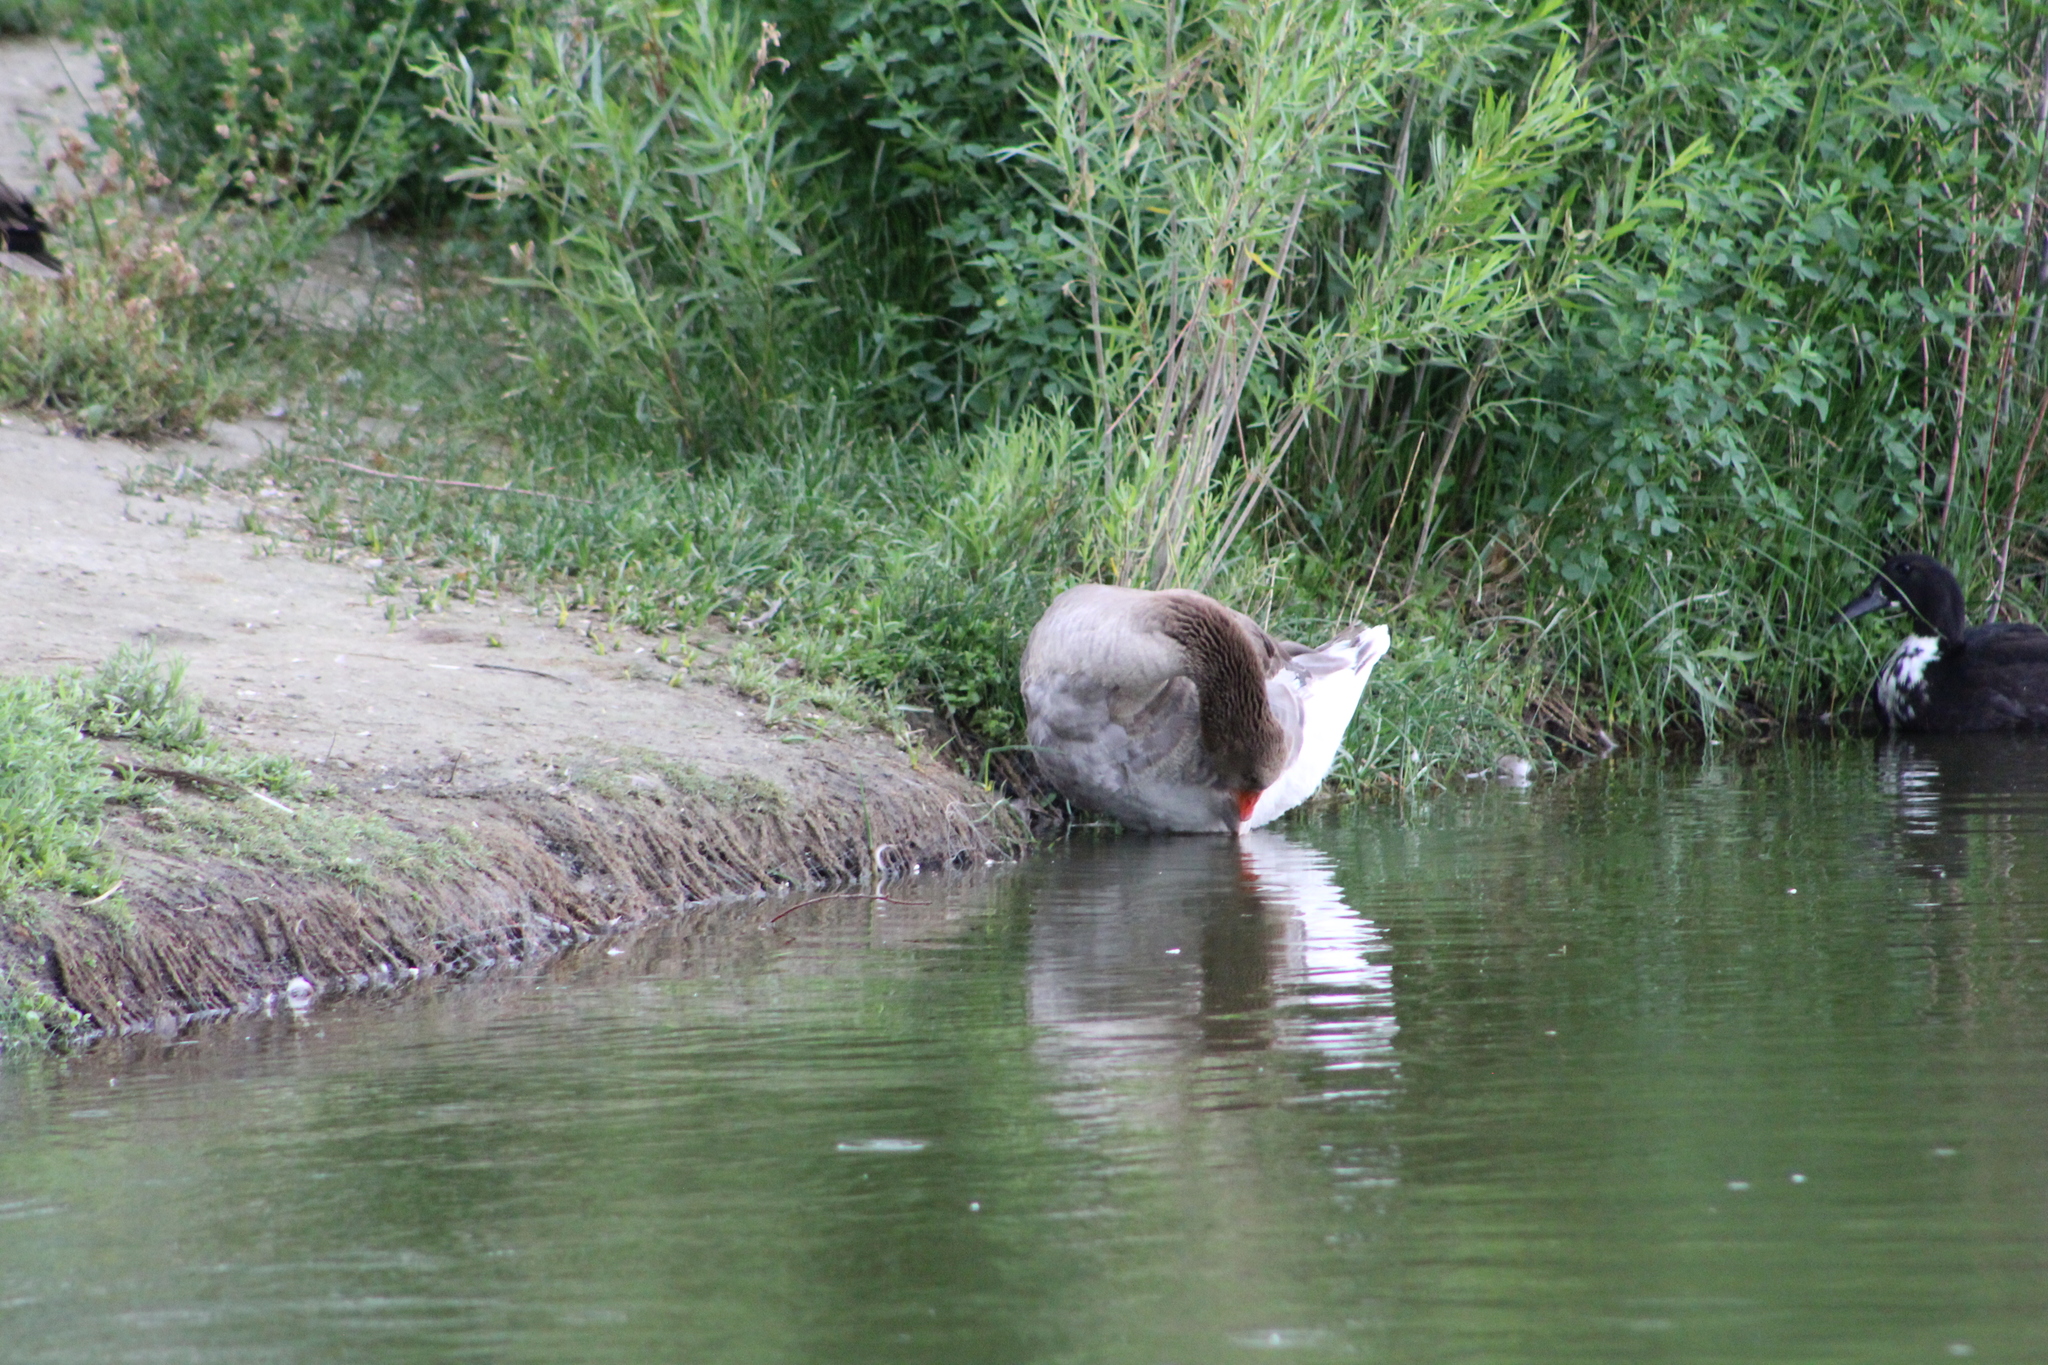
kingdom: Animalia
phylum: Chordata
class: Aves
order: Anseriformes
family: Anatidae
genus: Anser
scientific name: Anser anser
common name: Greylag goose
